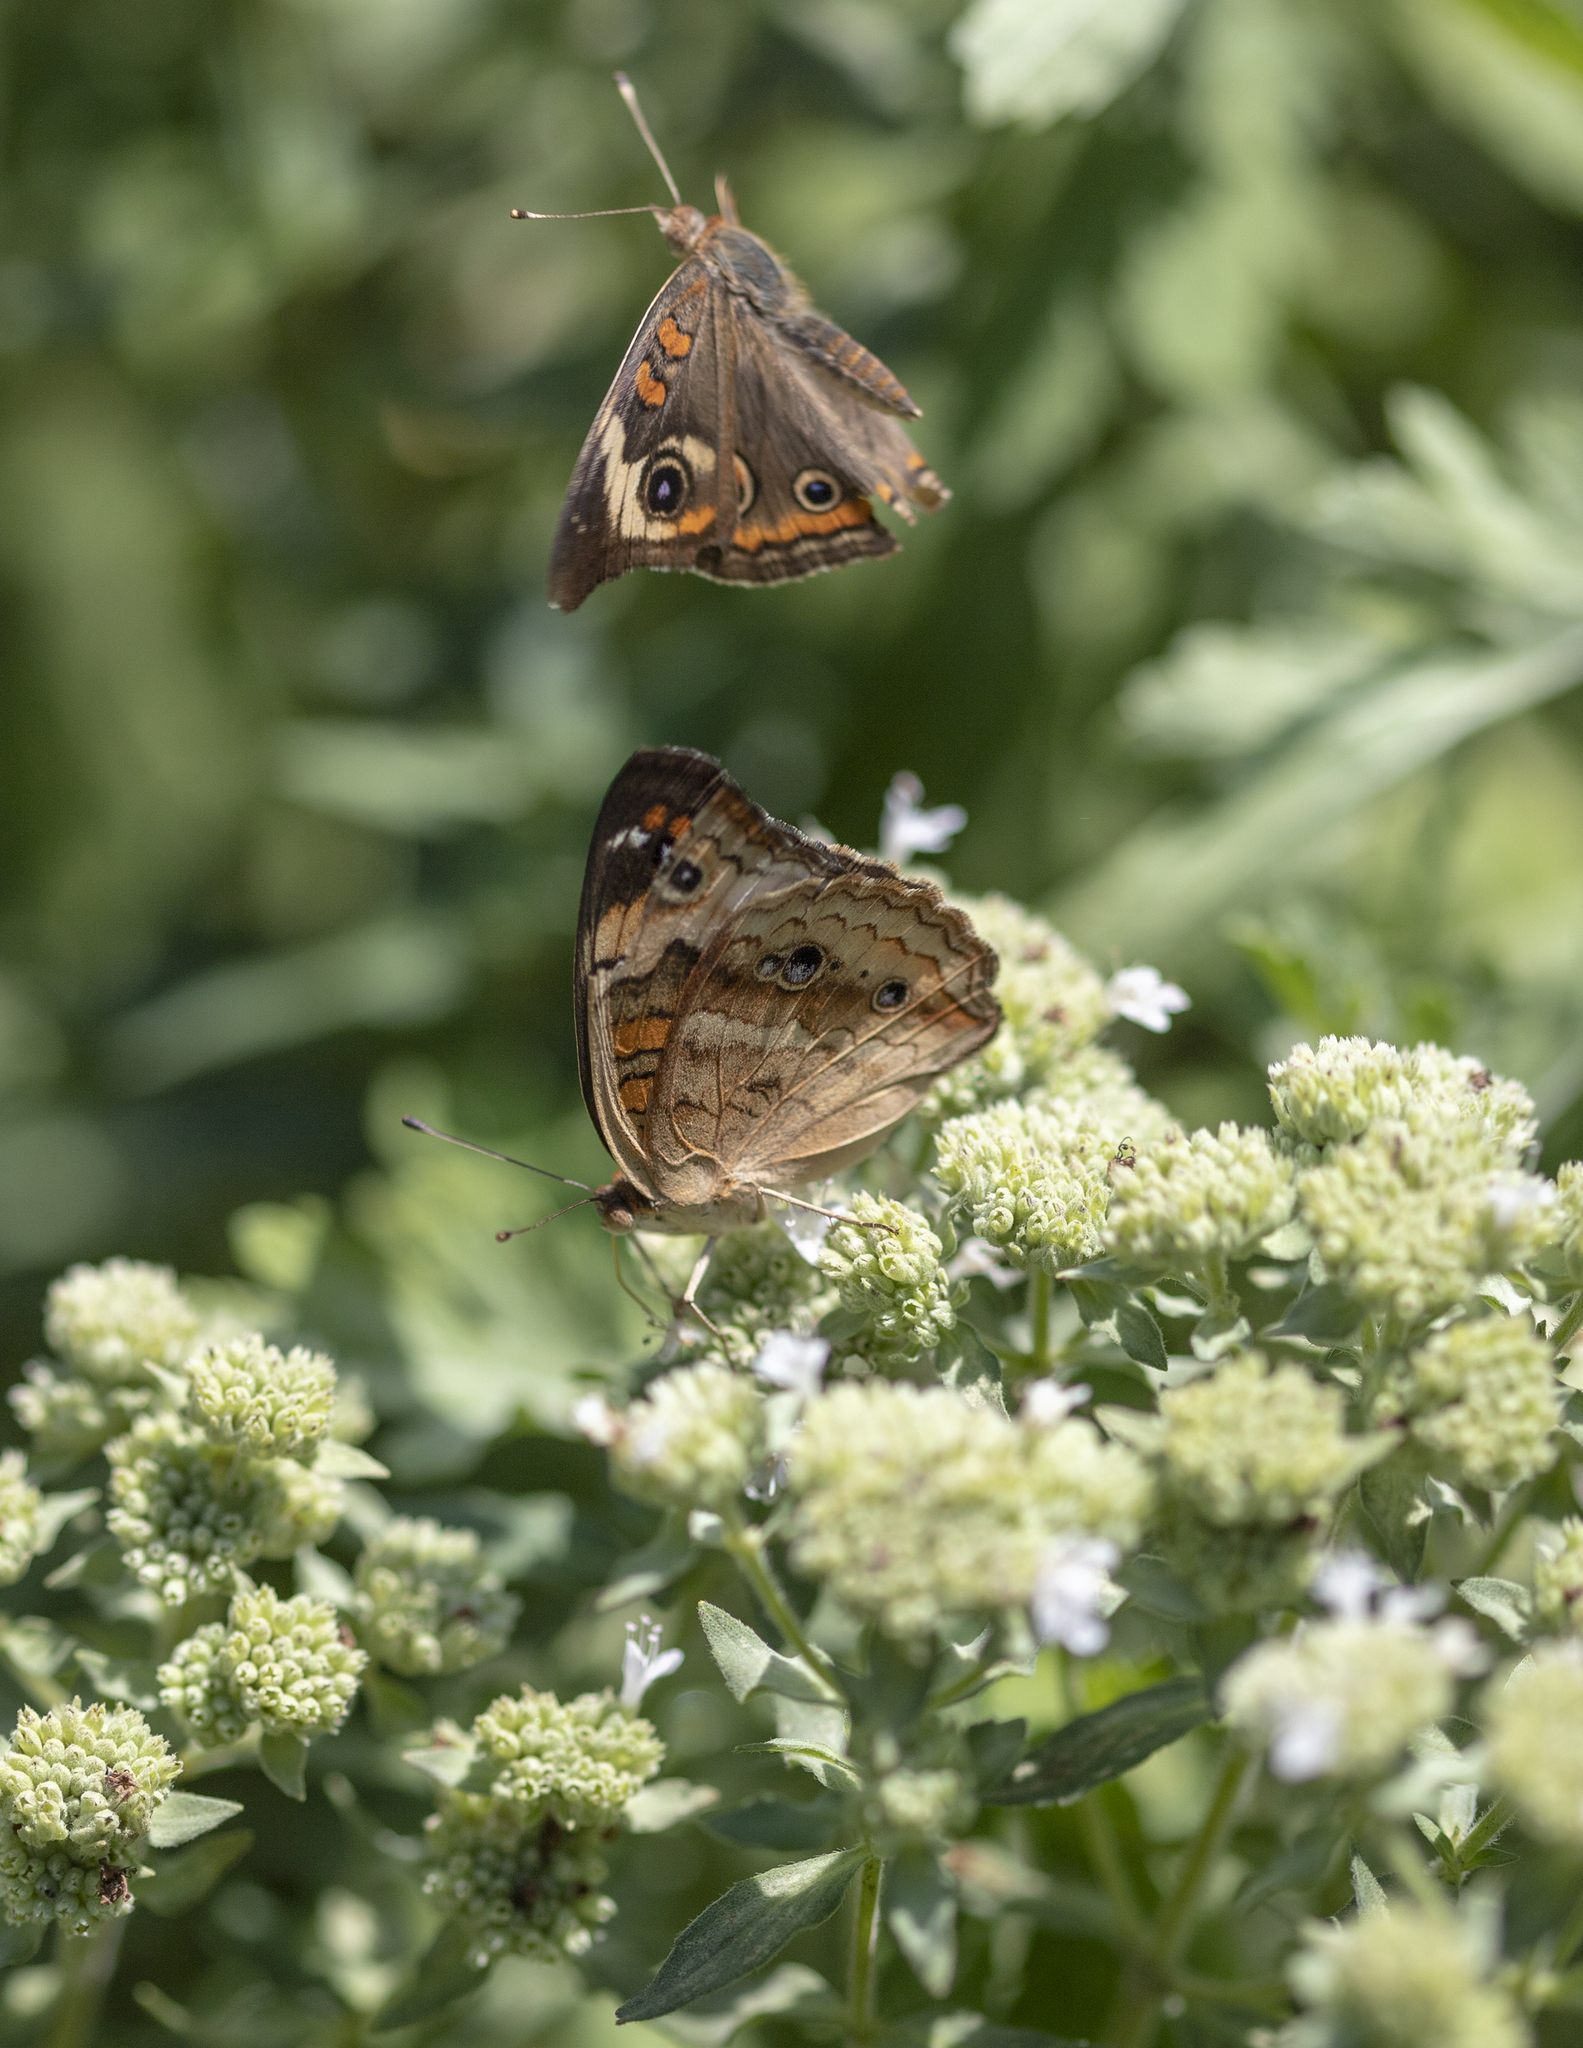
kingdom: Animalia
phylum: Arthropoda
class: Insecta
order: Lepidoptera
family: Nymphalidae
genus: Junonia
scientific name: Junonia coenia
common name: Common buckeye
